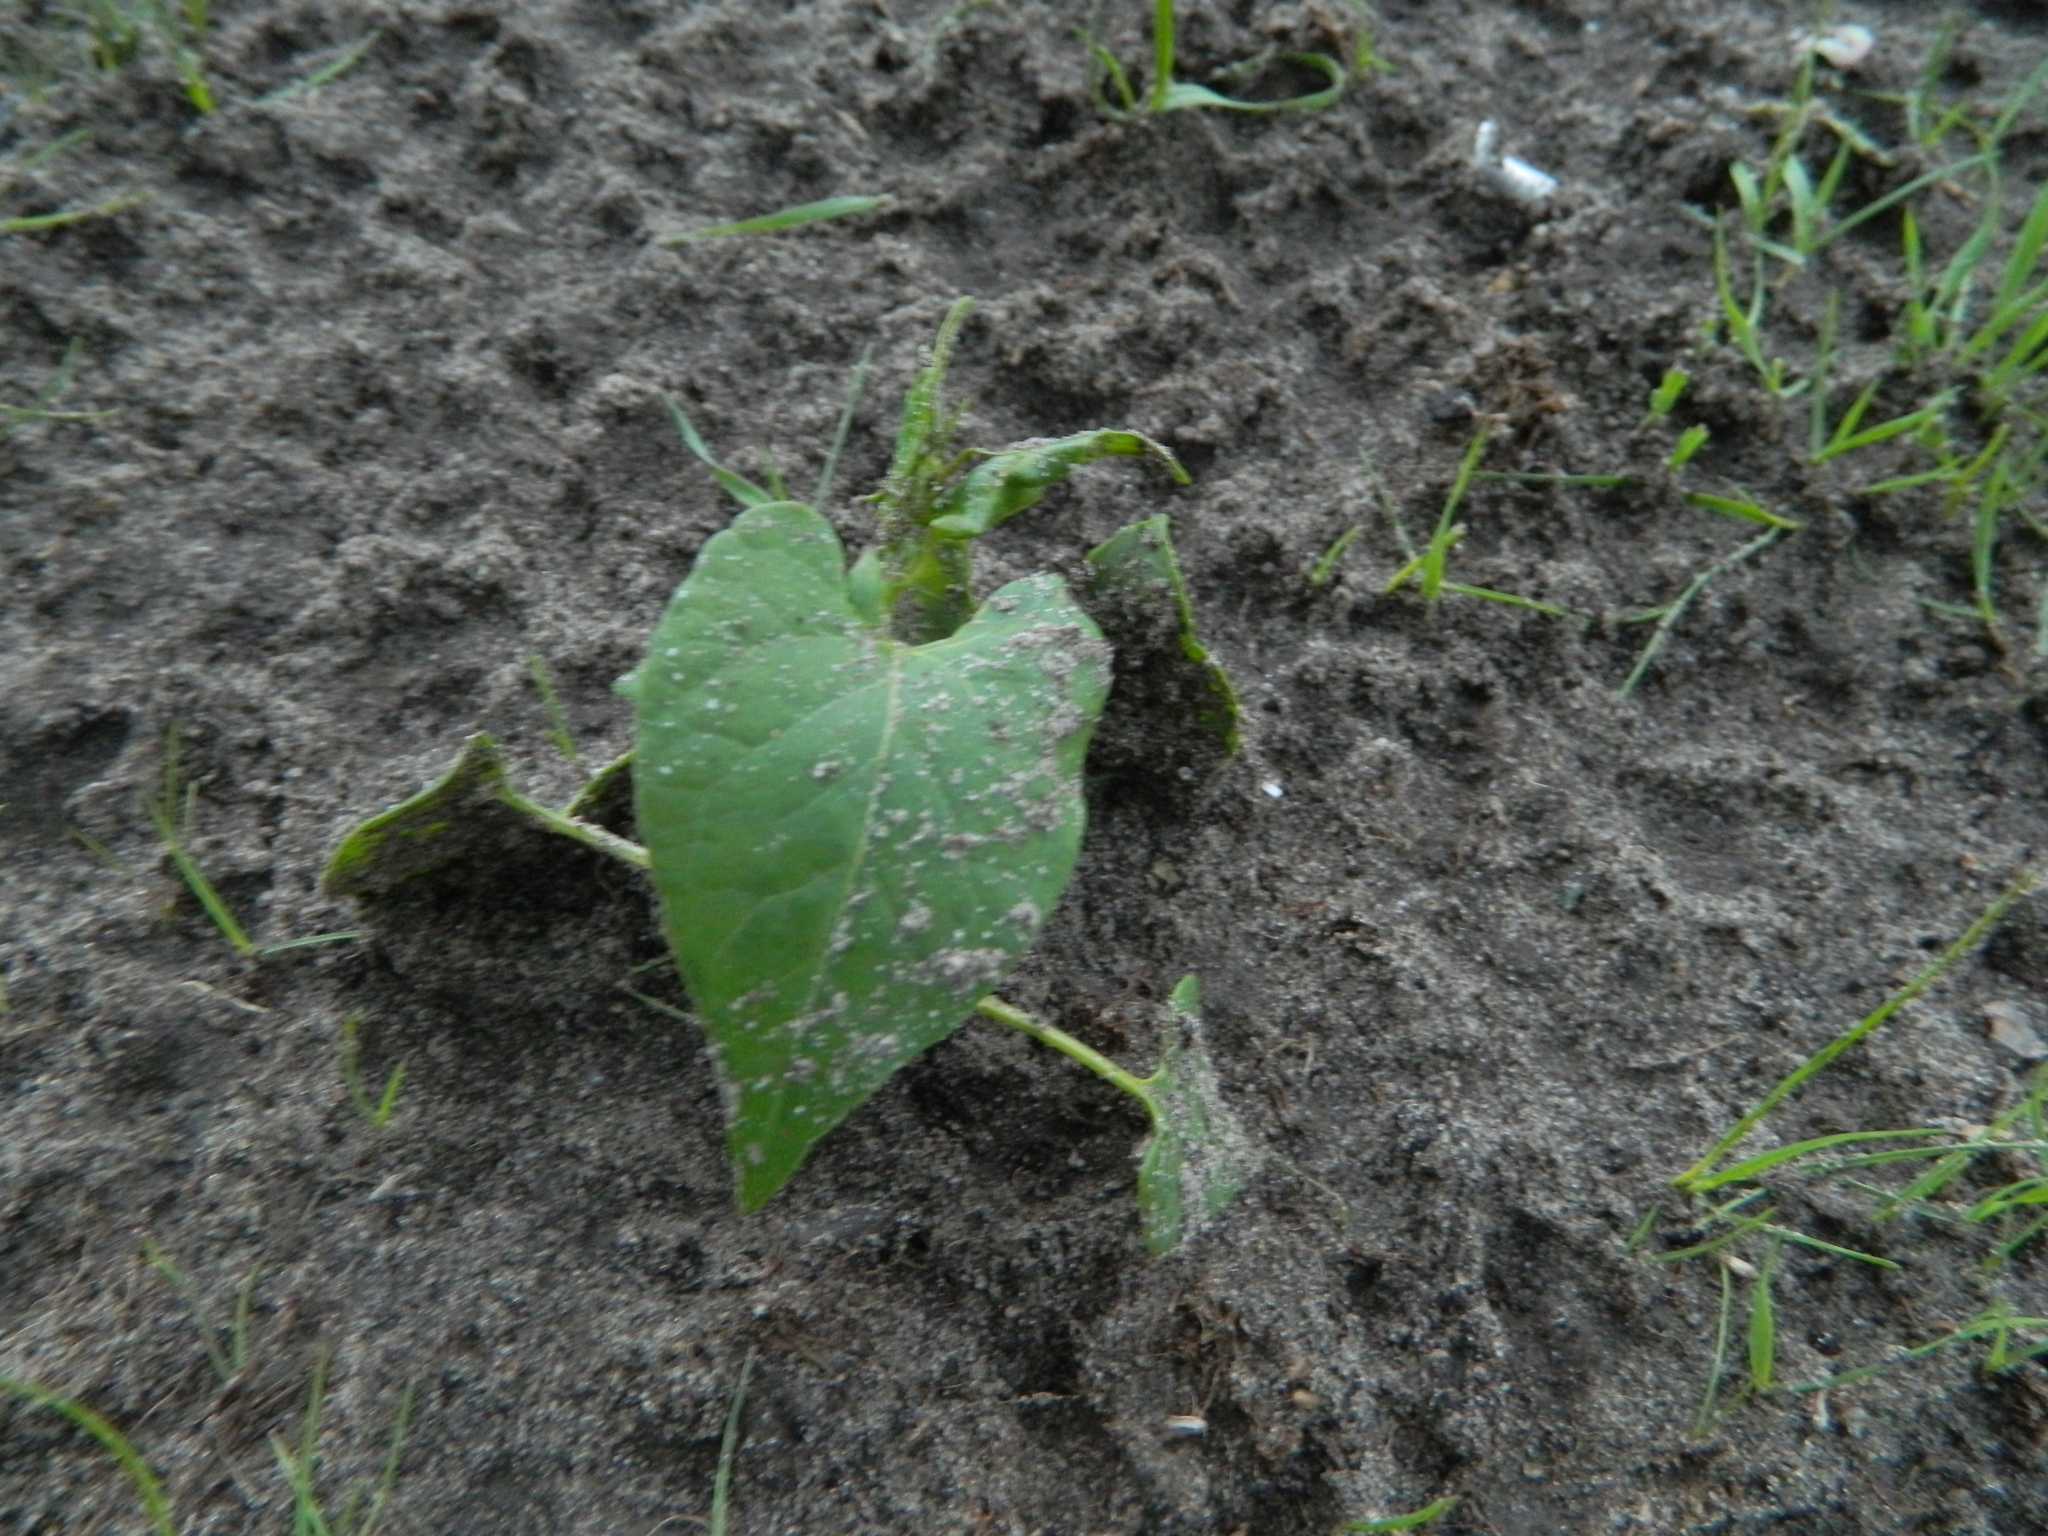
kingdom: Plantae
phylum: Tracheophyta
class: Magnoliopsida
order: Caryophyllales
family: Polygonaceae
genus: Fallopia
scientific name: Fallopia convolvulus
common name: Black bindweed
